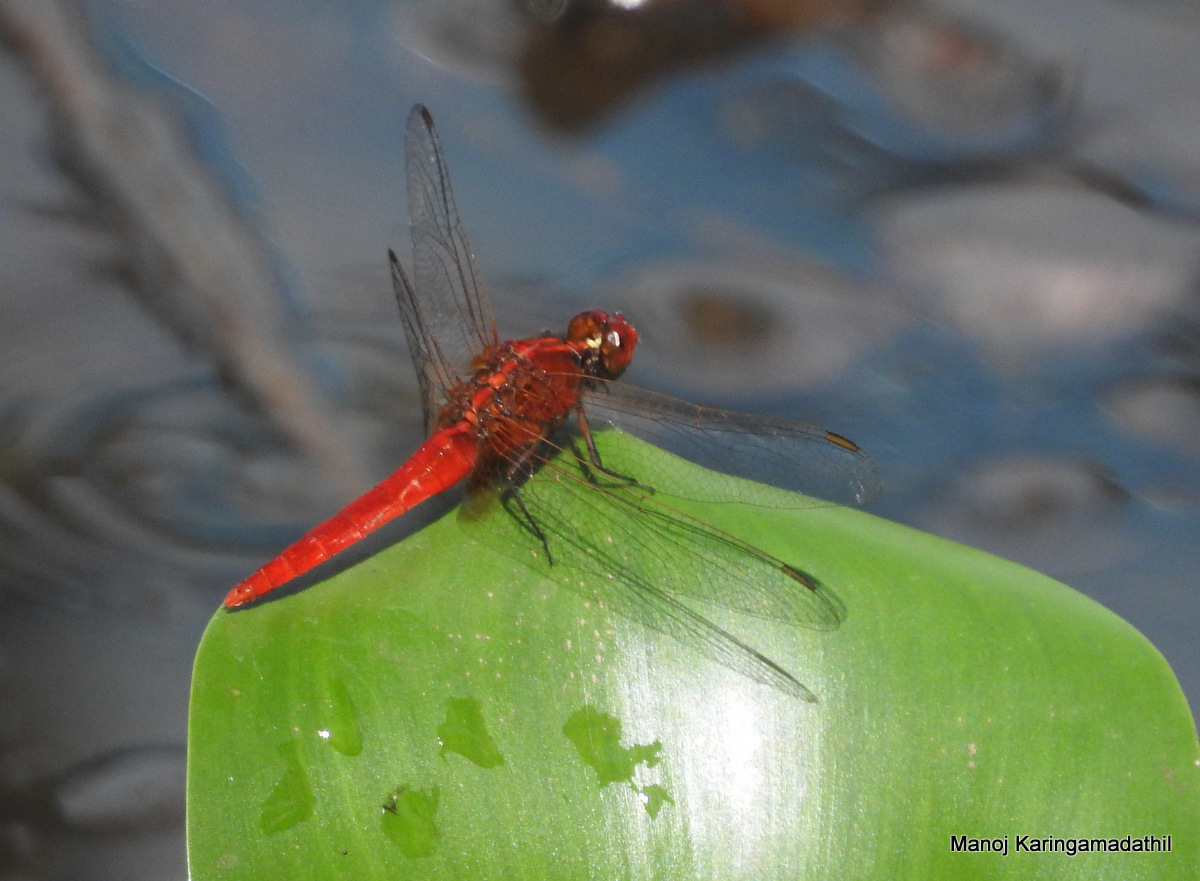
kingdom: Animalia
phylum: Arthropoda
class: Insecta
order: Odonata
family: Libellulidae
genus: Rhodothemis
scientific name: Rhodothemis rufa
